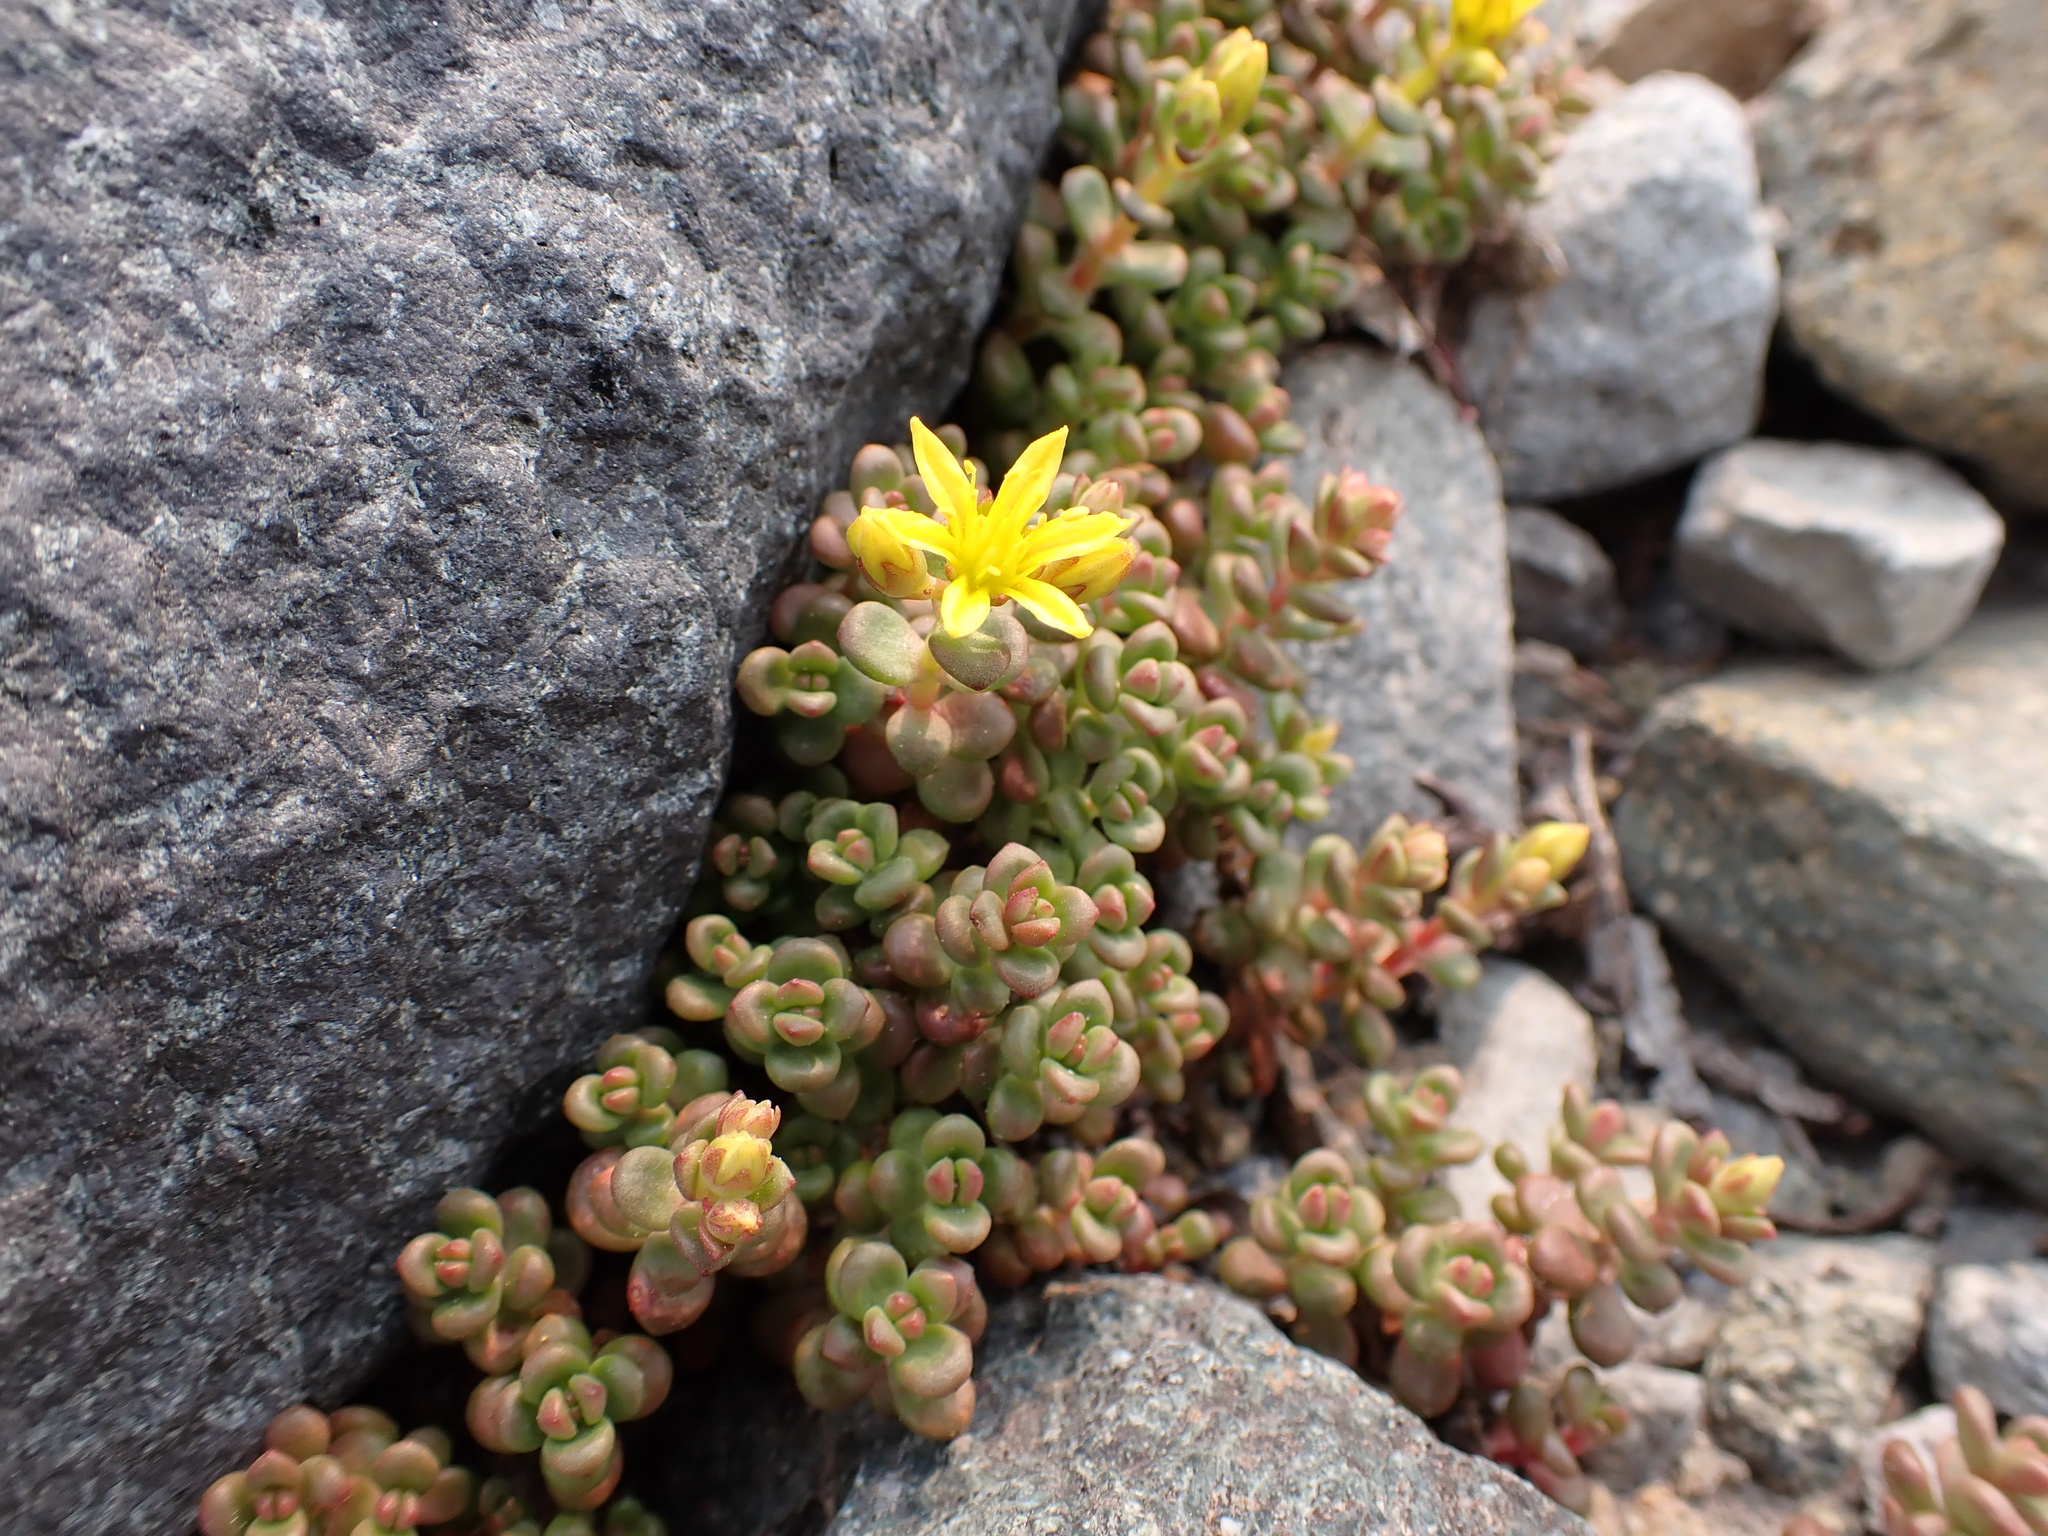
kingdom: Plantae
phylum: Tracheophyta
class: Magnoliopsida
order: Saxifragales
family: Crassulaceae
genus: Sedum
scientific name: Sedum divergens
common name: Cascade stonecrop
